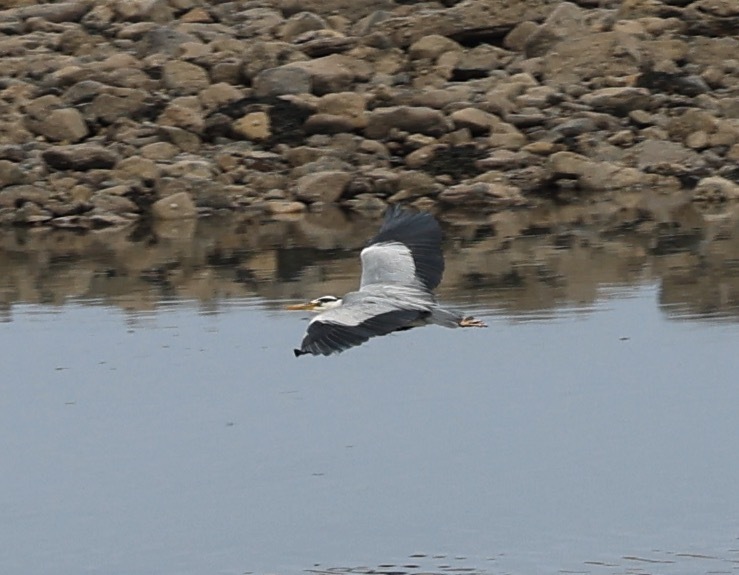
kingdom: Animalia
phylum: Chordata
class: Aves
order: Pelecaniformes
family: Ardeidae
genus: Ardea
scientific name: Ardea cinerea
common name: Grey heron
